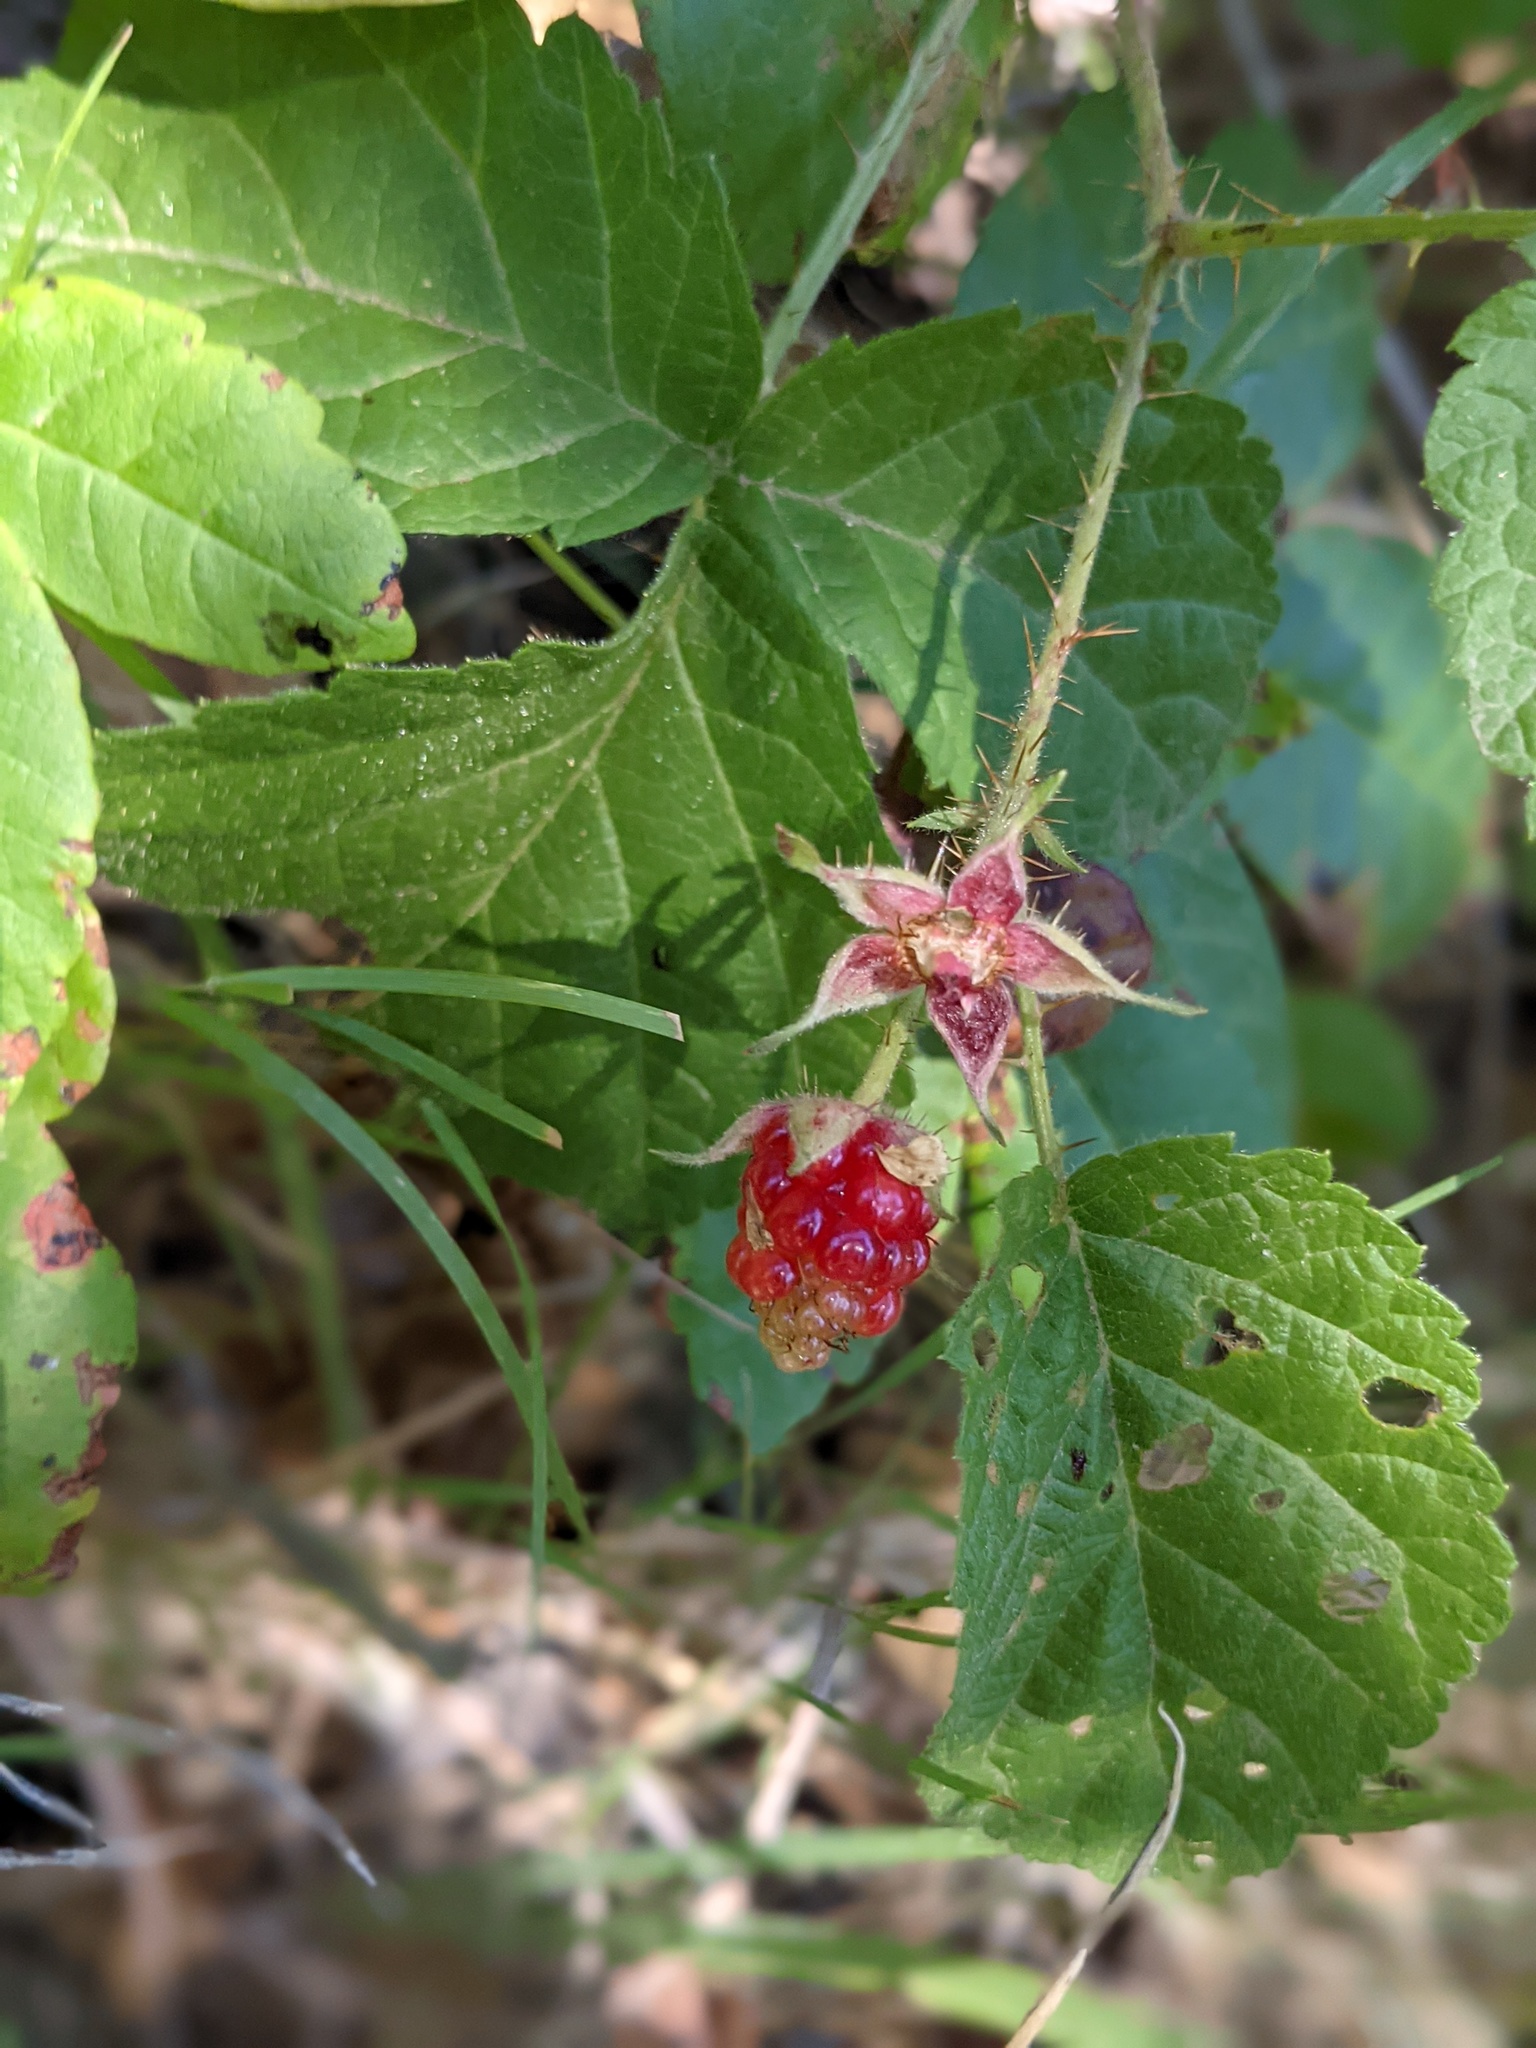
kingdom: Plantae
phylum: Tracheophyta
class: Magnoliopsida
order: Rosales
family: Rosaceae
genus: Rubus
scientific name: Rubus ursinus
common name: Pacific blackberry
